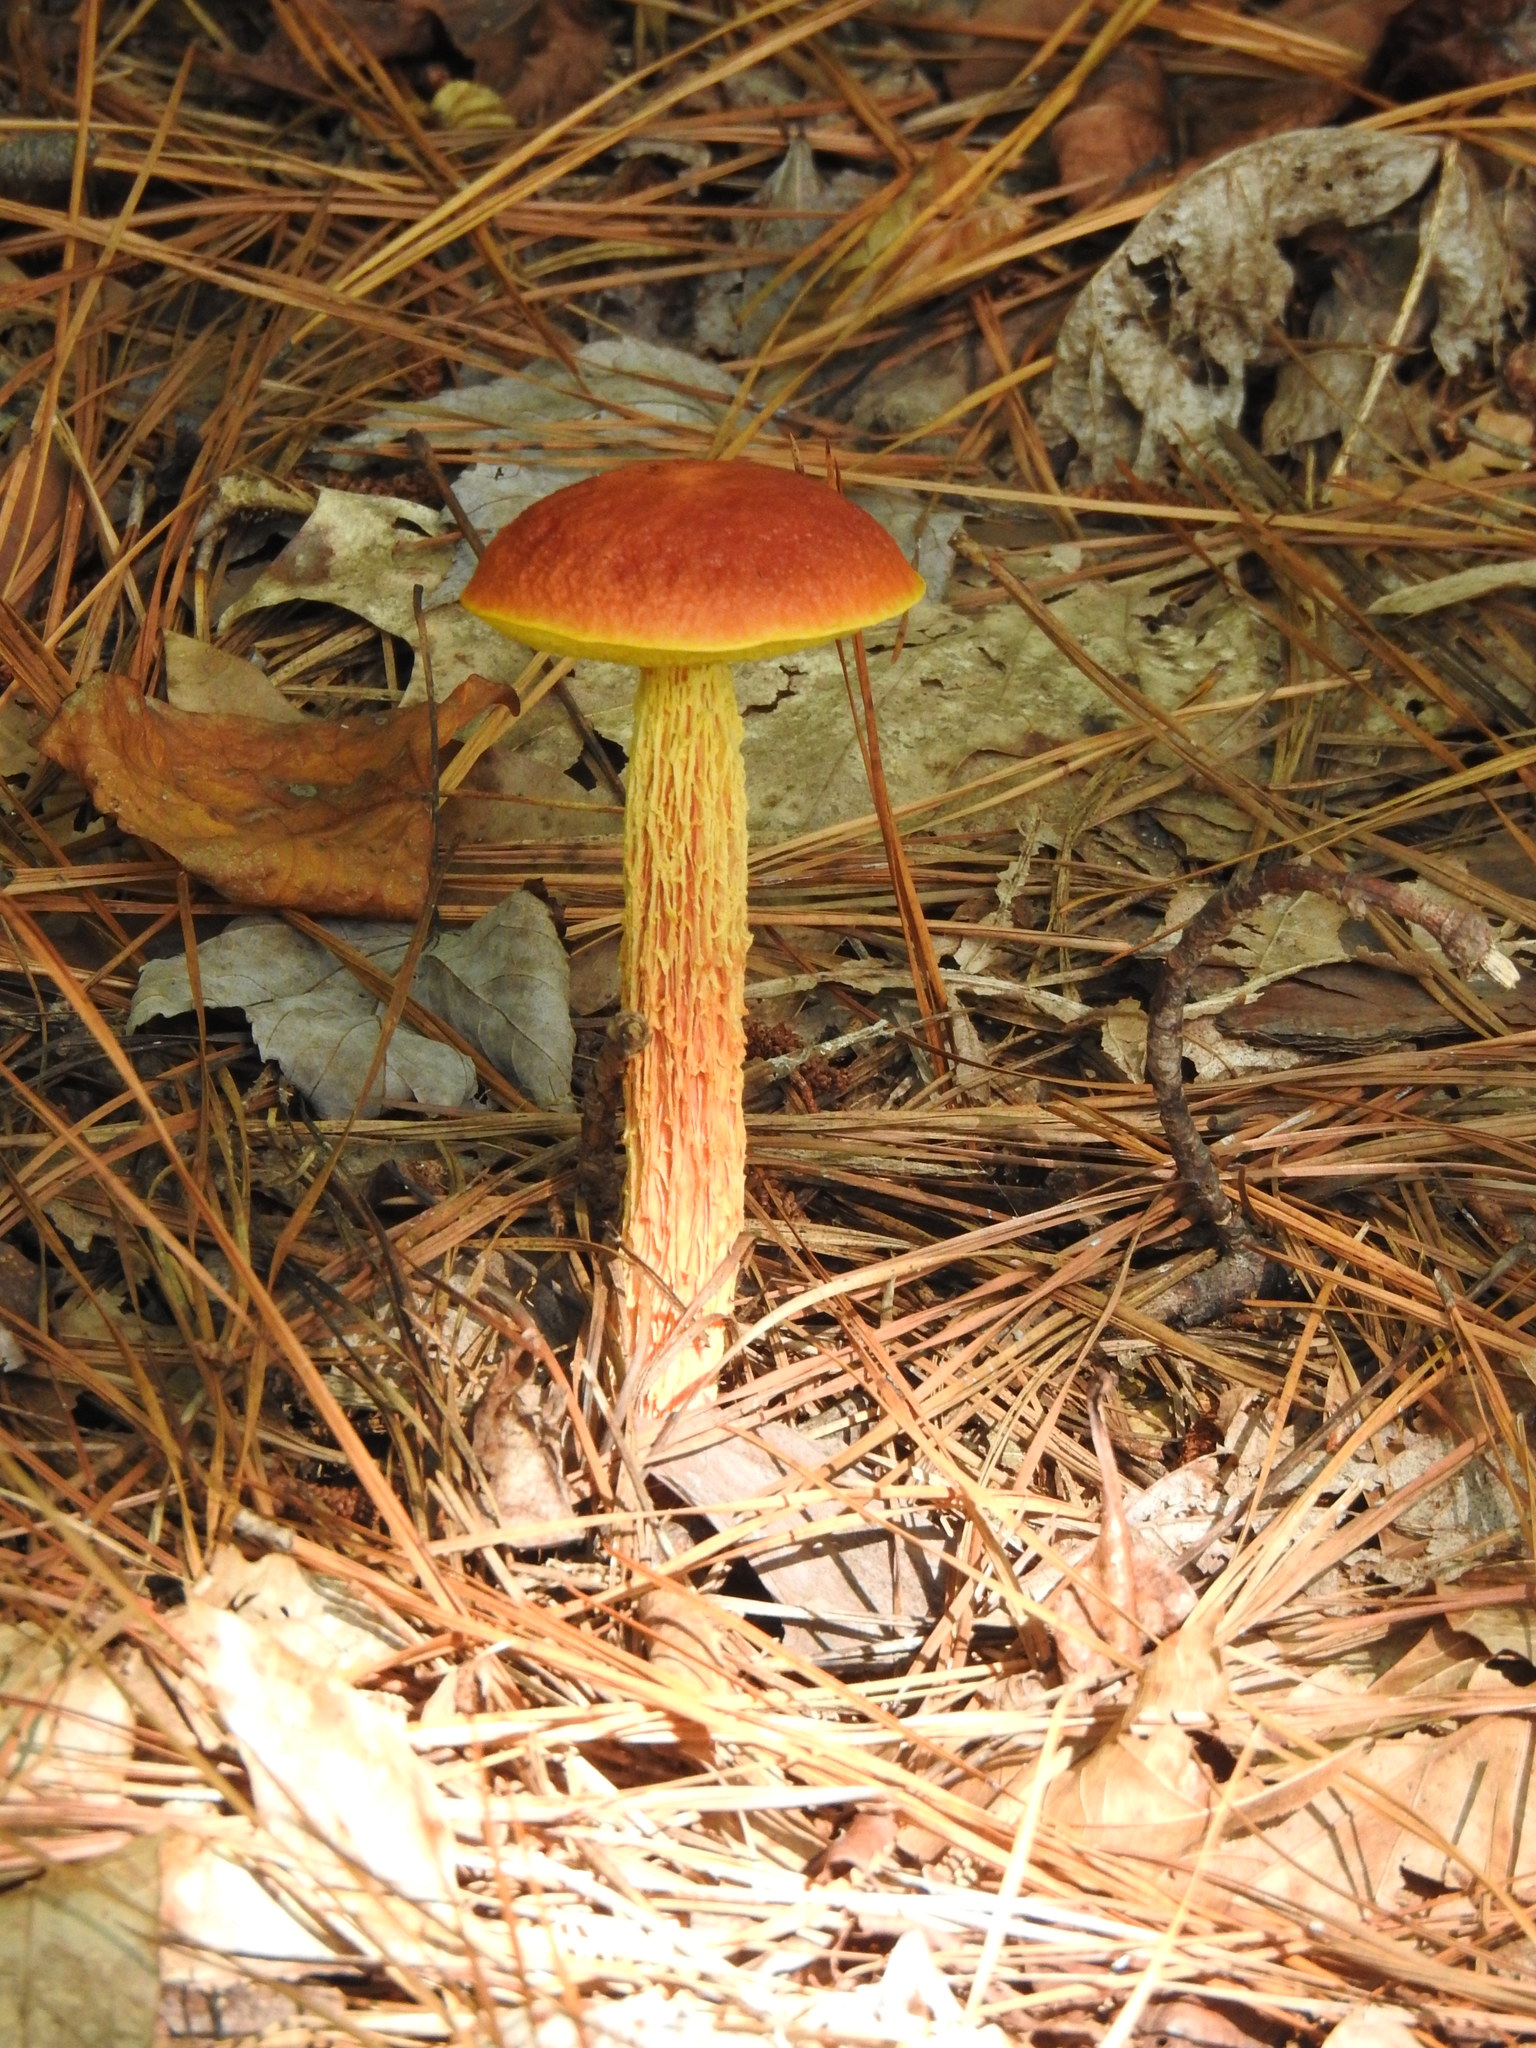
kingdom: Fungi
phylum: Basidiomycota
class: Agaricomycetes
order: Boletales
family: Boletaceae
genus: Aureoboletus
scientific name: Aureoboletus betula
